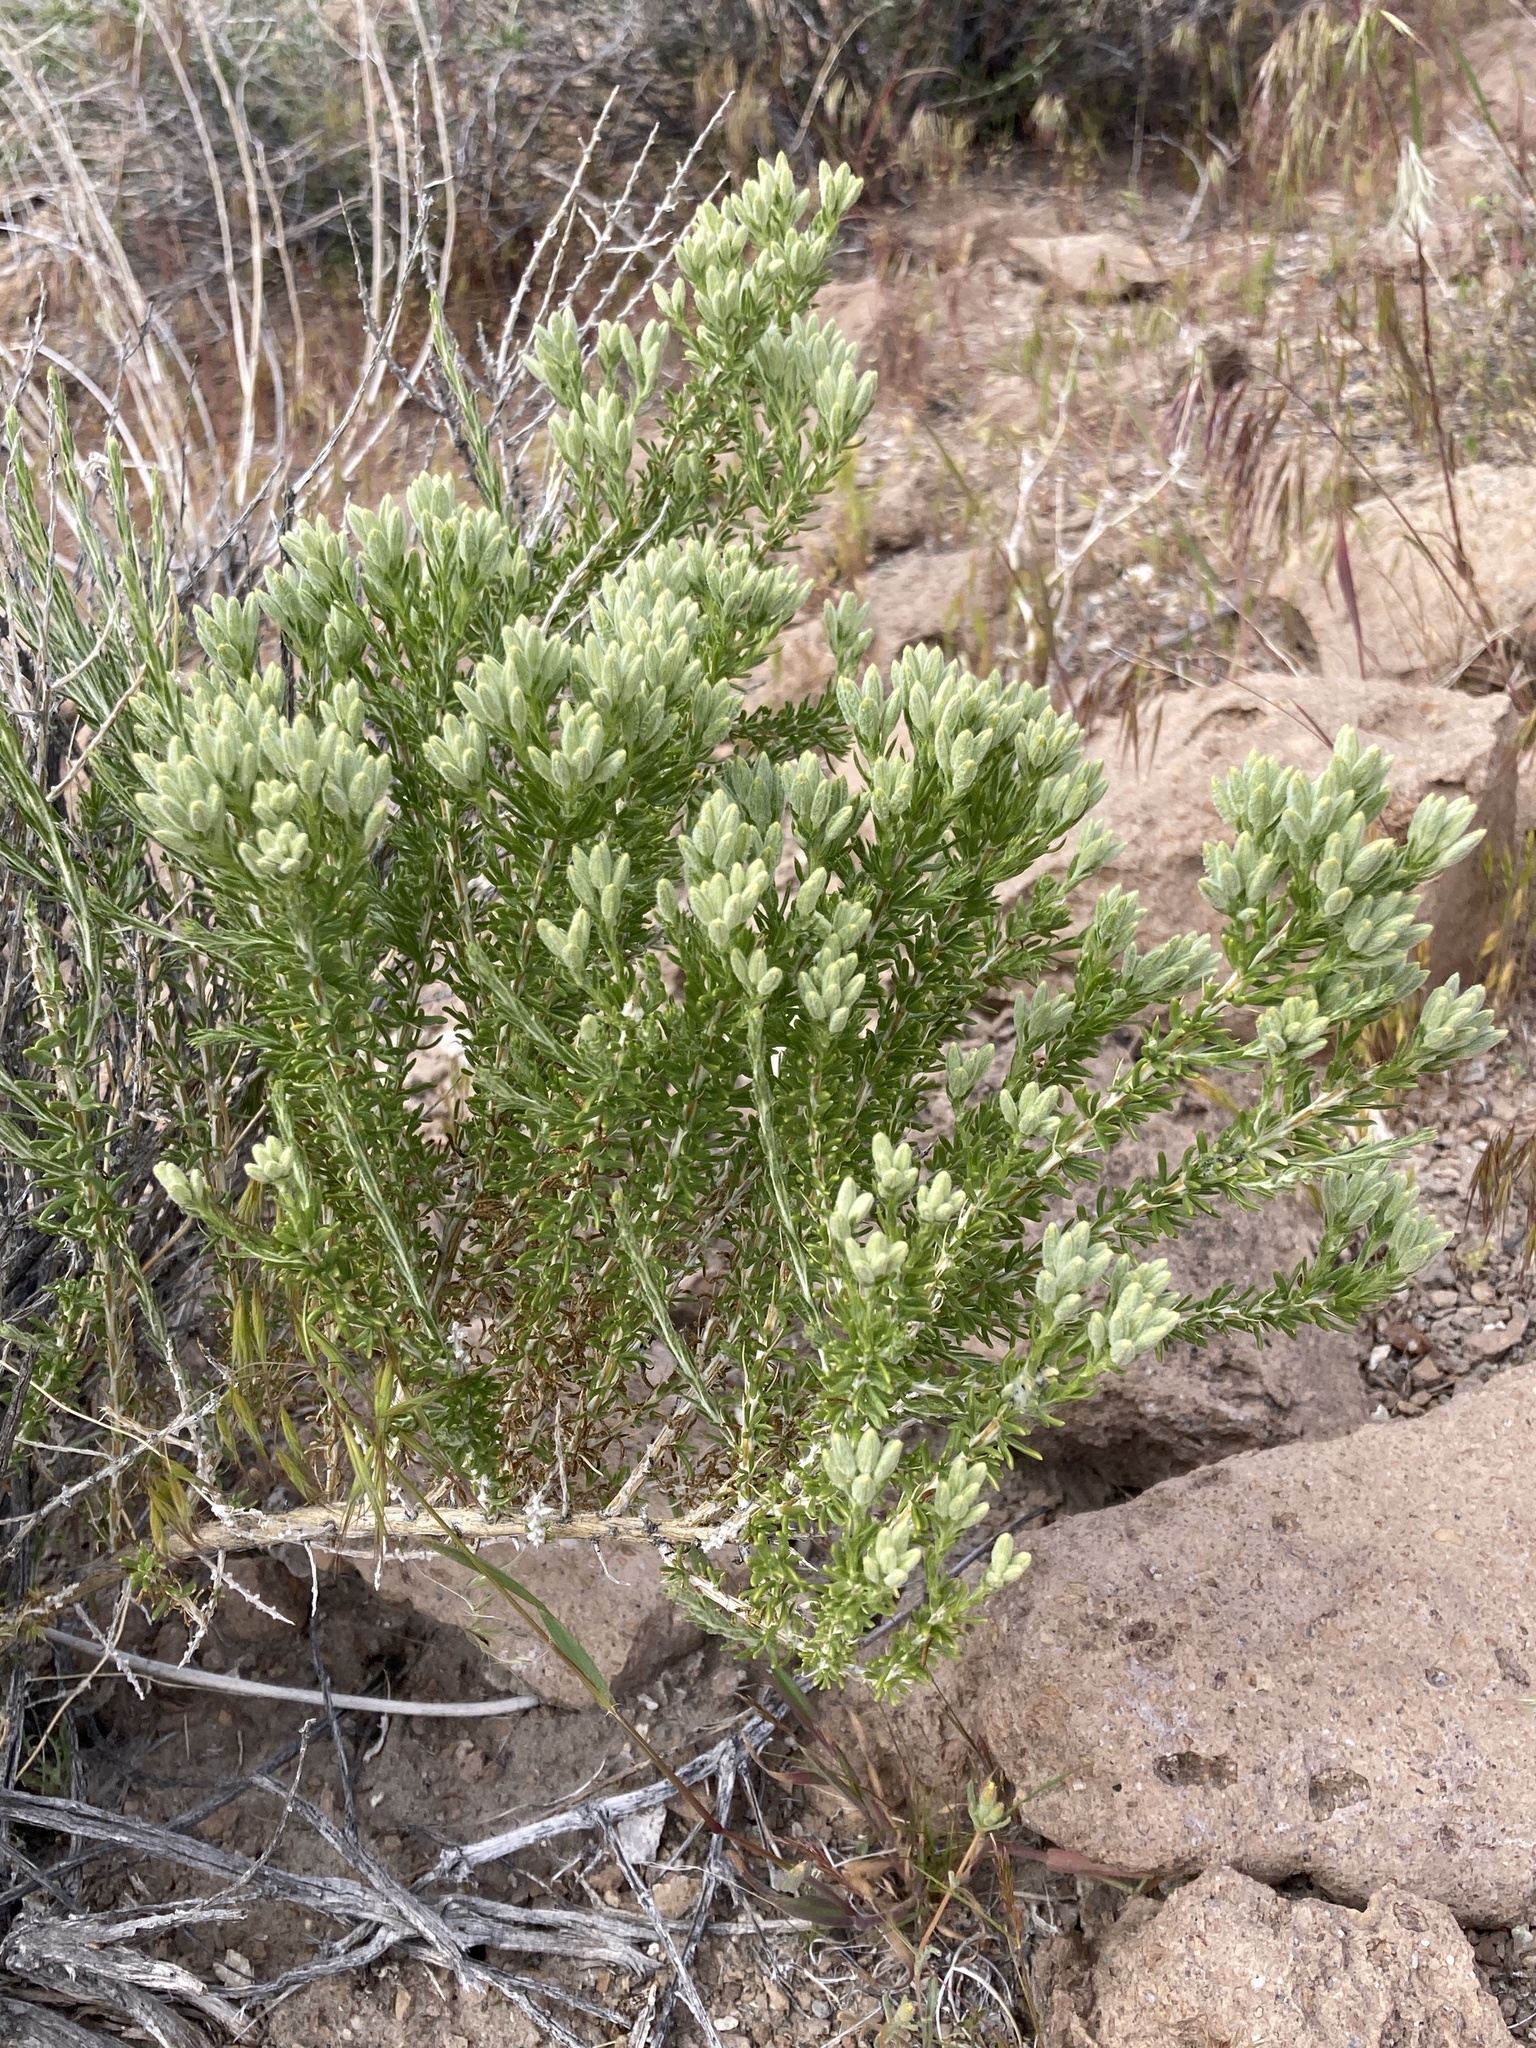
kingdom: Plantae
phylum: Tracheophyta
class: Magnoliopsida
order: Asterales
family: Asteraceae
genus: Tetradymia
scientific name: Tetradymia glabrata
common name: Smooth tetradymia
